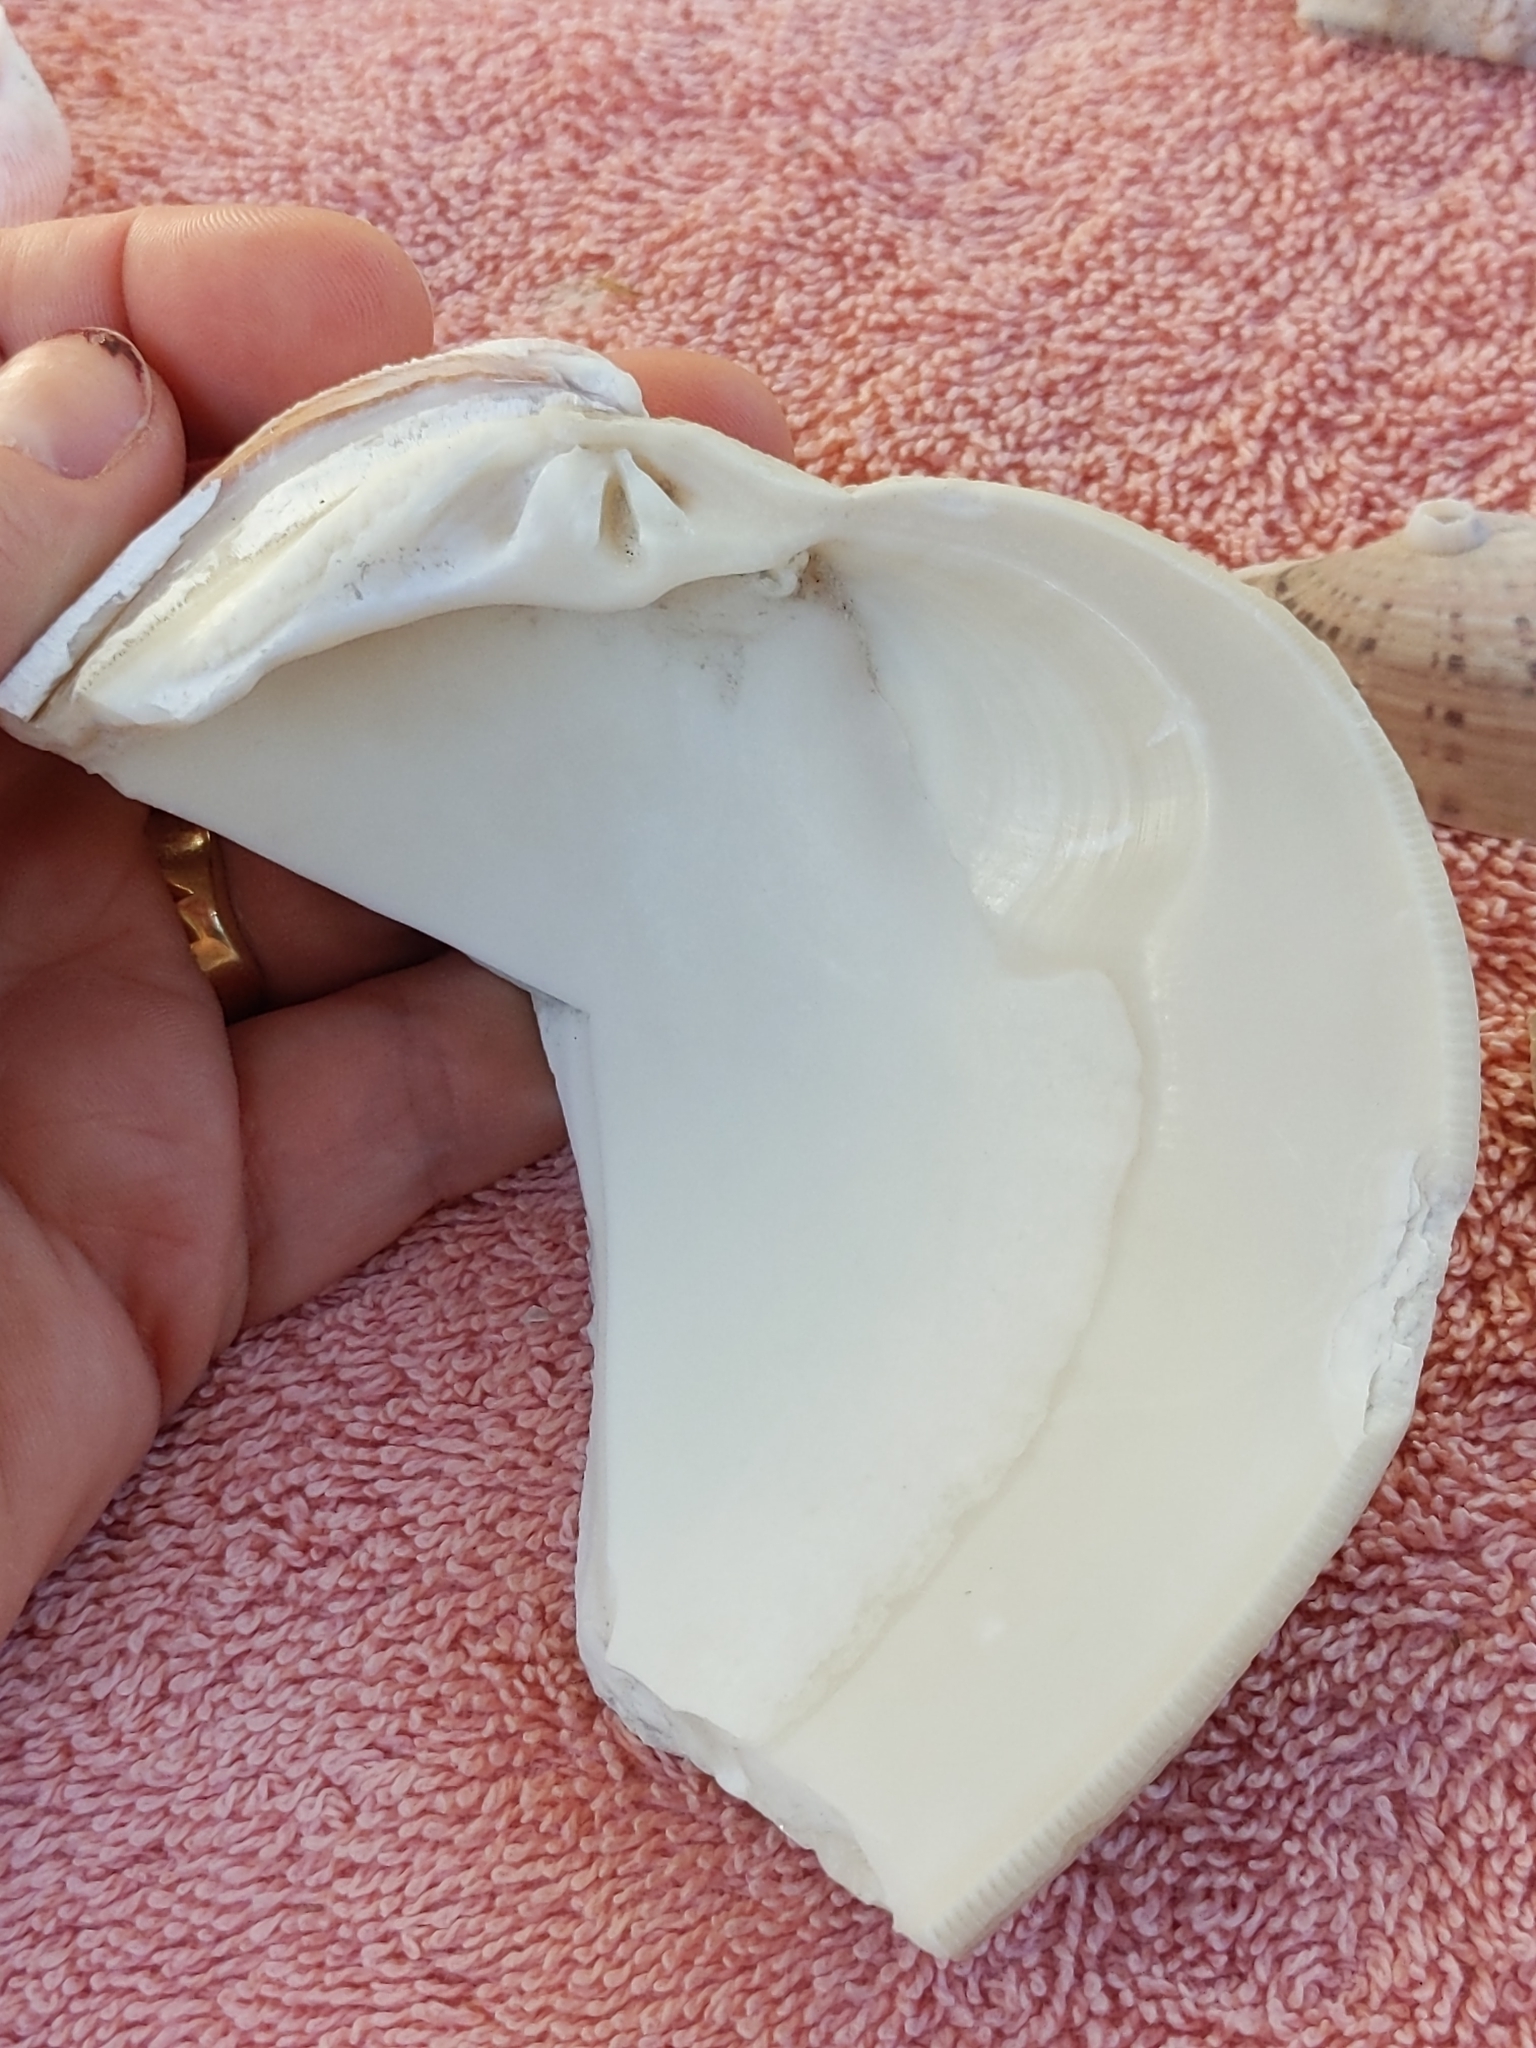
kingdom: Animalia
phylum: Mollusca
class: Bivalvia
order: Venerida
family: Veneridae
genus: Mercenaria
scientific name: Mercenaria campechiensis
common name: Südliche quahog-muschel
